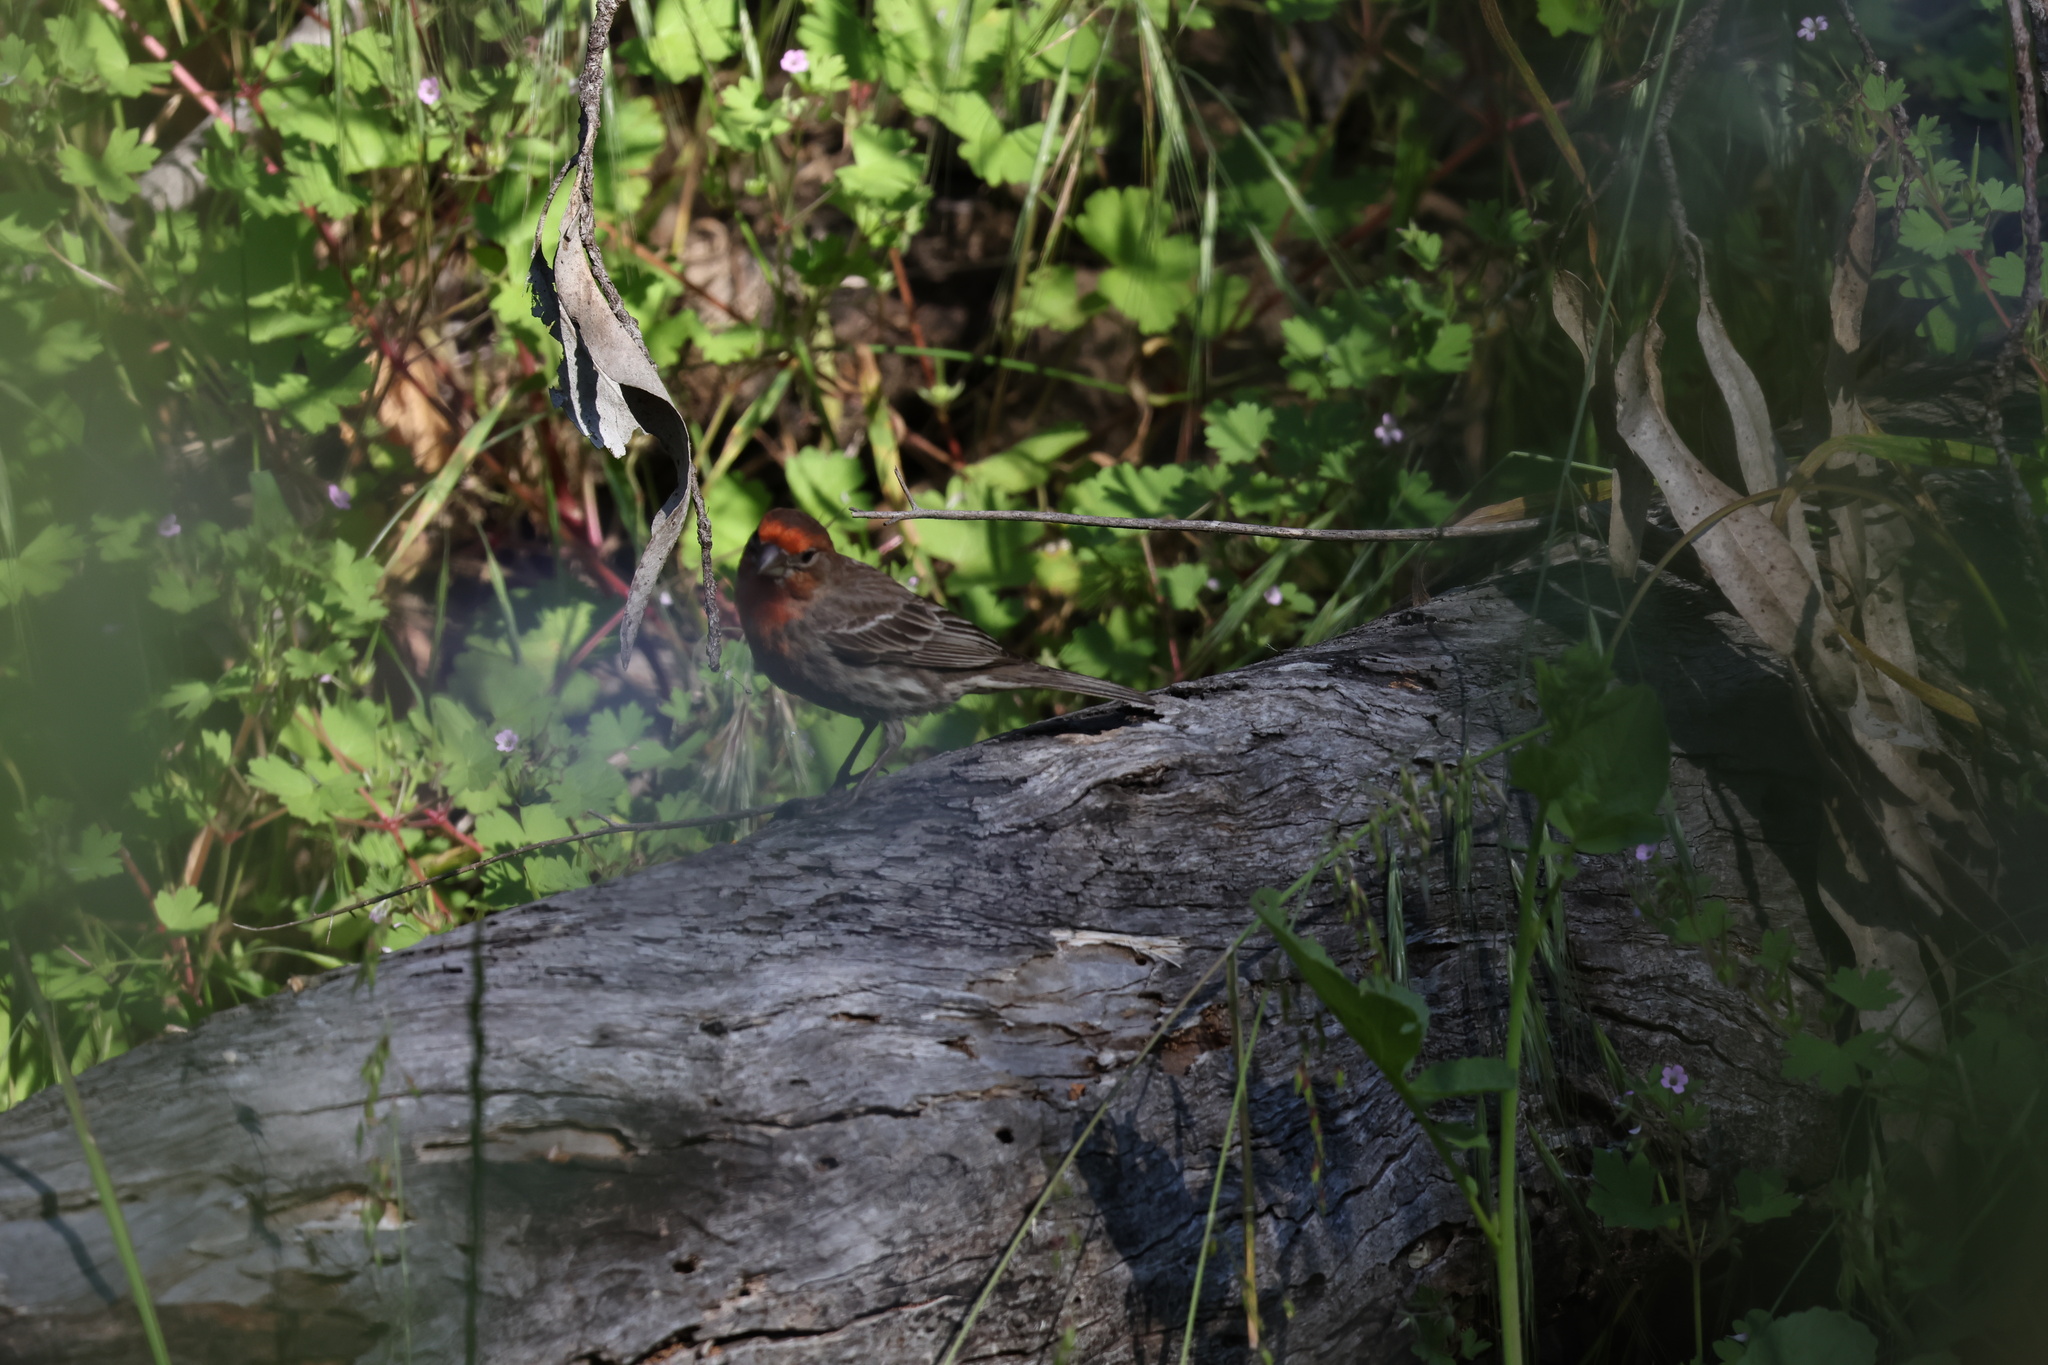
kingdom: Animalia
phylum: Chordata
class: Aves
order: Passeriformes
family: Fringillidae
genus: Haemorhous
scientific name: Haemorhous mexicanus
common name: House finch
